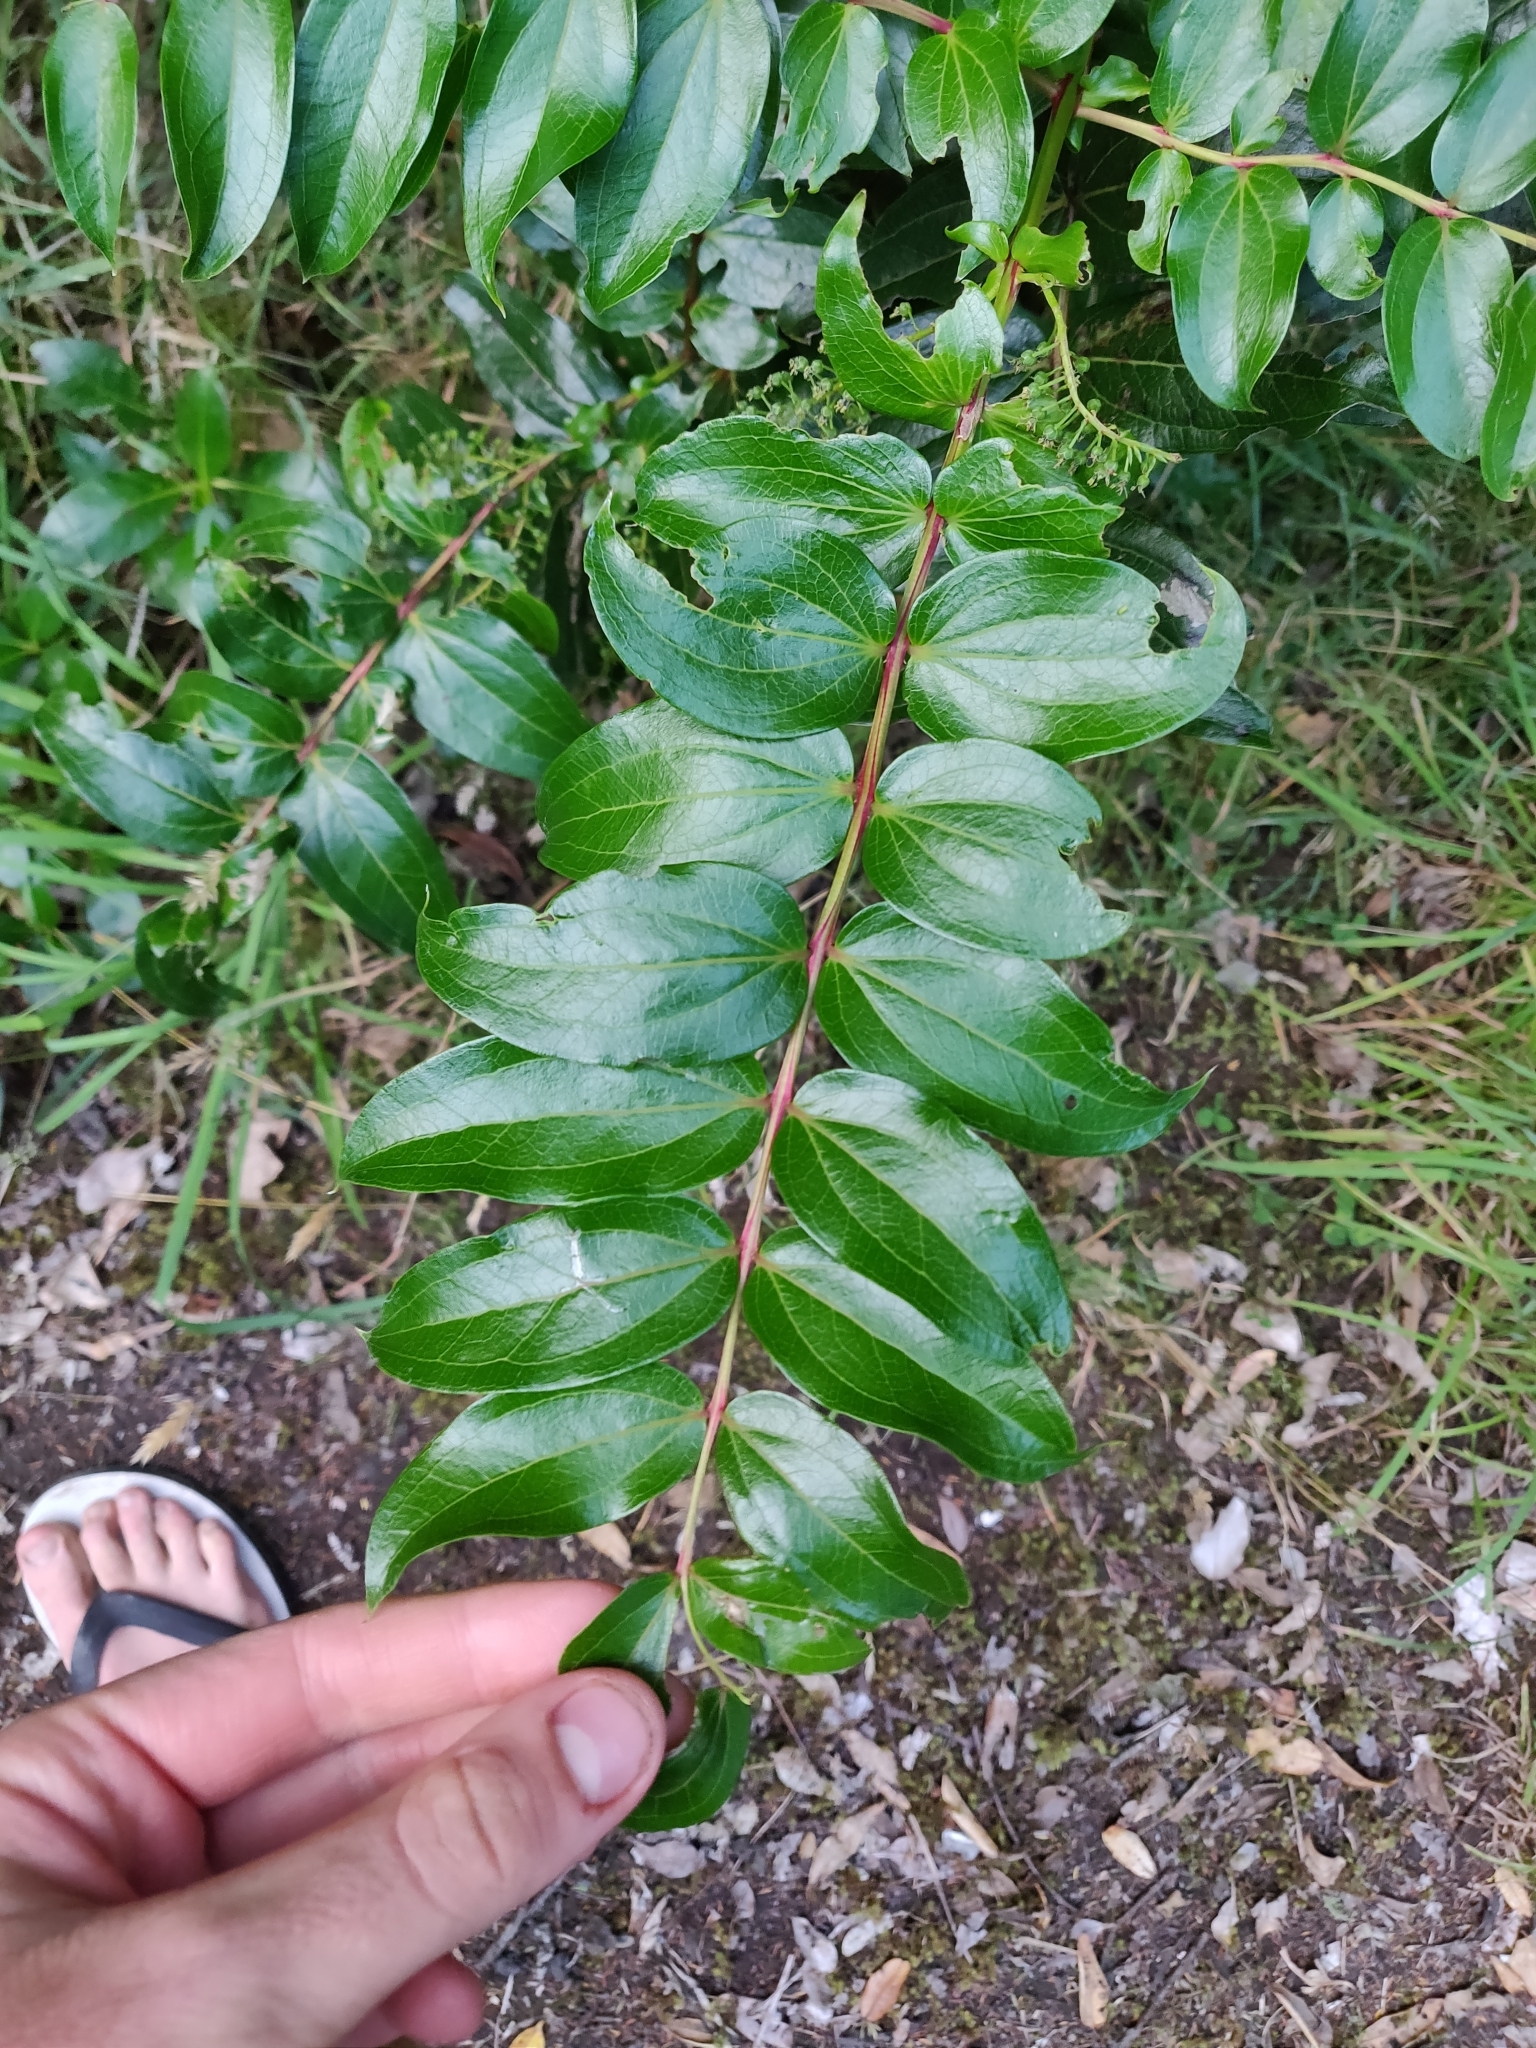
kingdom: Plantae
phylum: Tracheophyta
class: Magnoliopsida
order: Cucurbitales
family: Coriariaceae
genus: Coriaria
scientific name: Coriaria arborea
